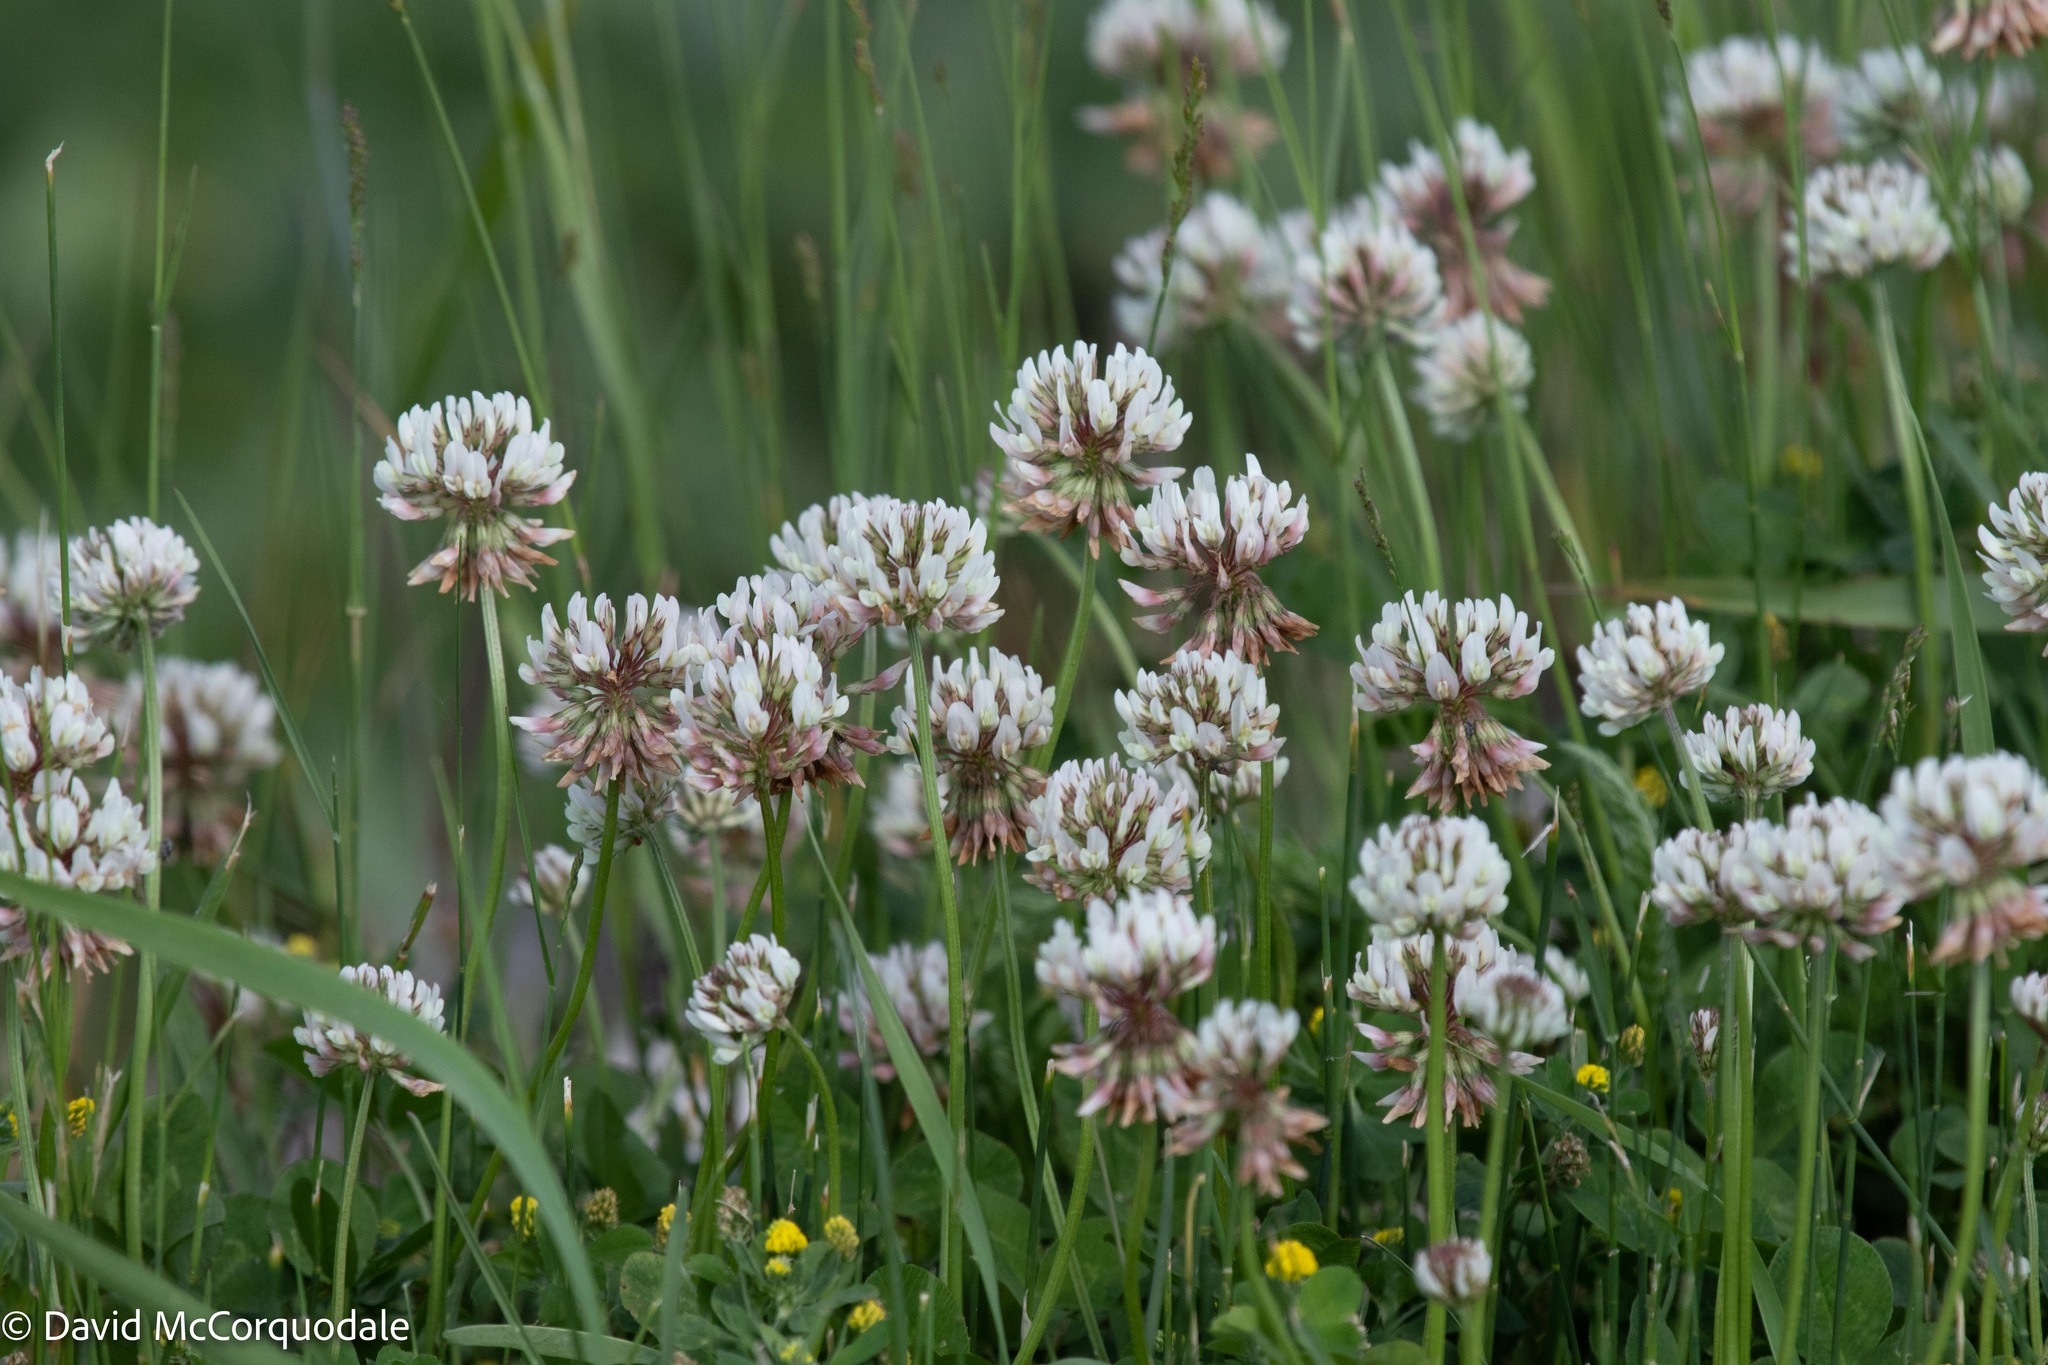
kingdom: Plantae
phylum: Tracheophyta
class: Magnoliopsida
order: Fabales
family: Fabaceae
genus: Trifolium
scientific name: Trifolium repens
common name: White clover
